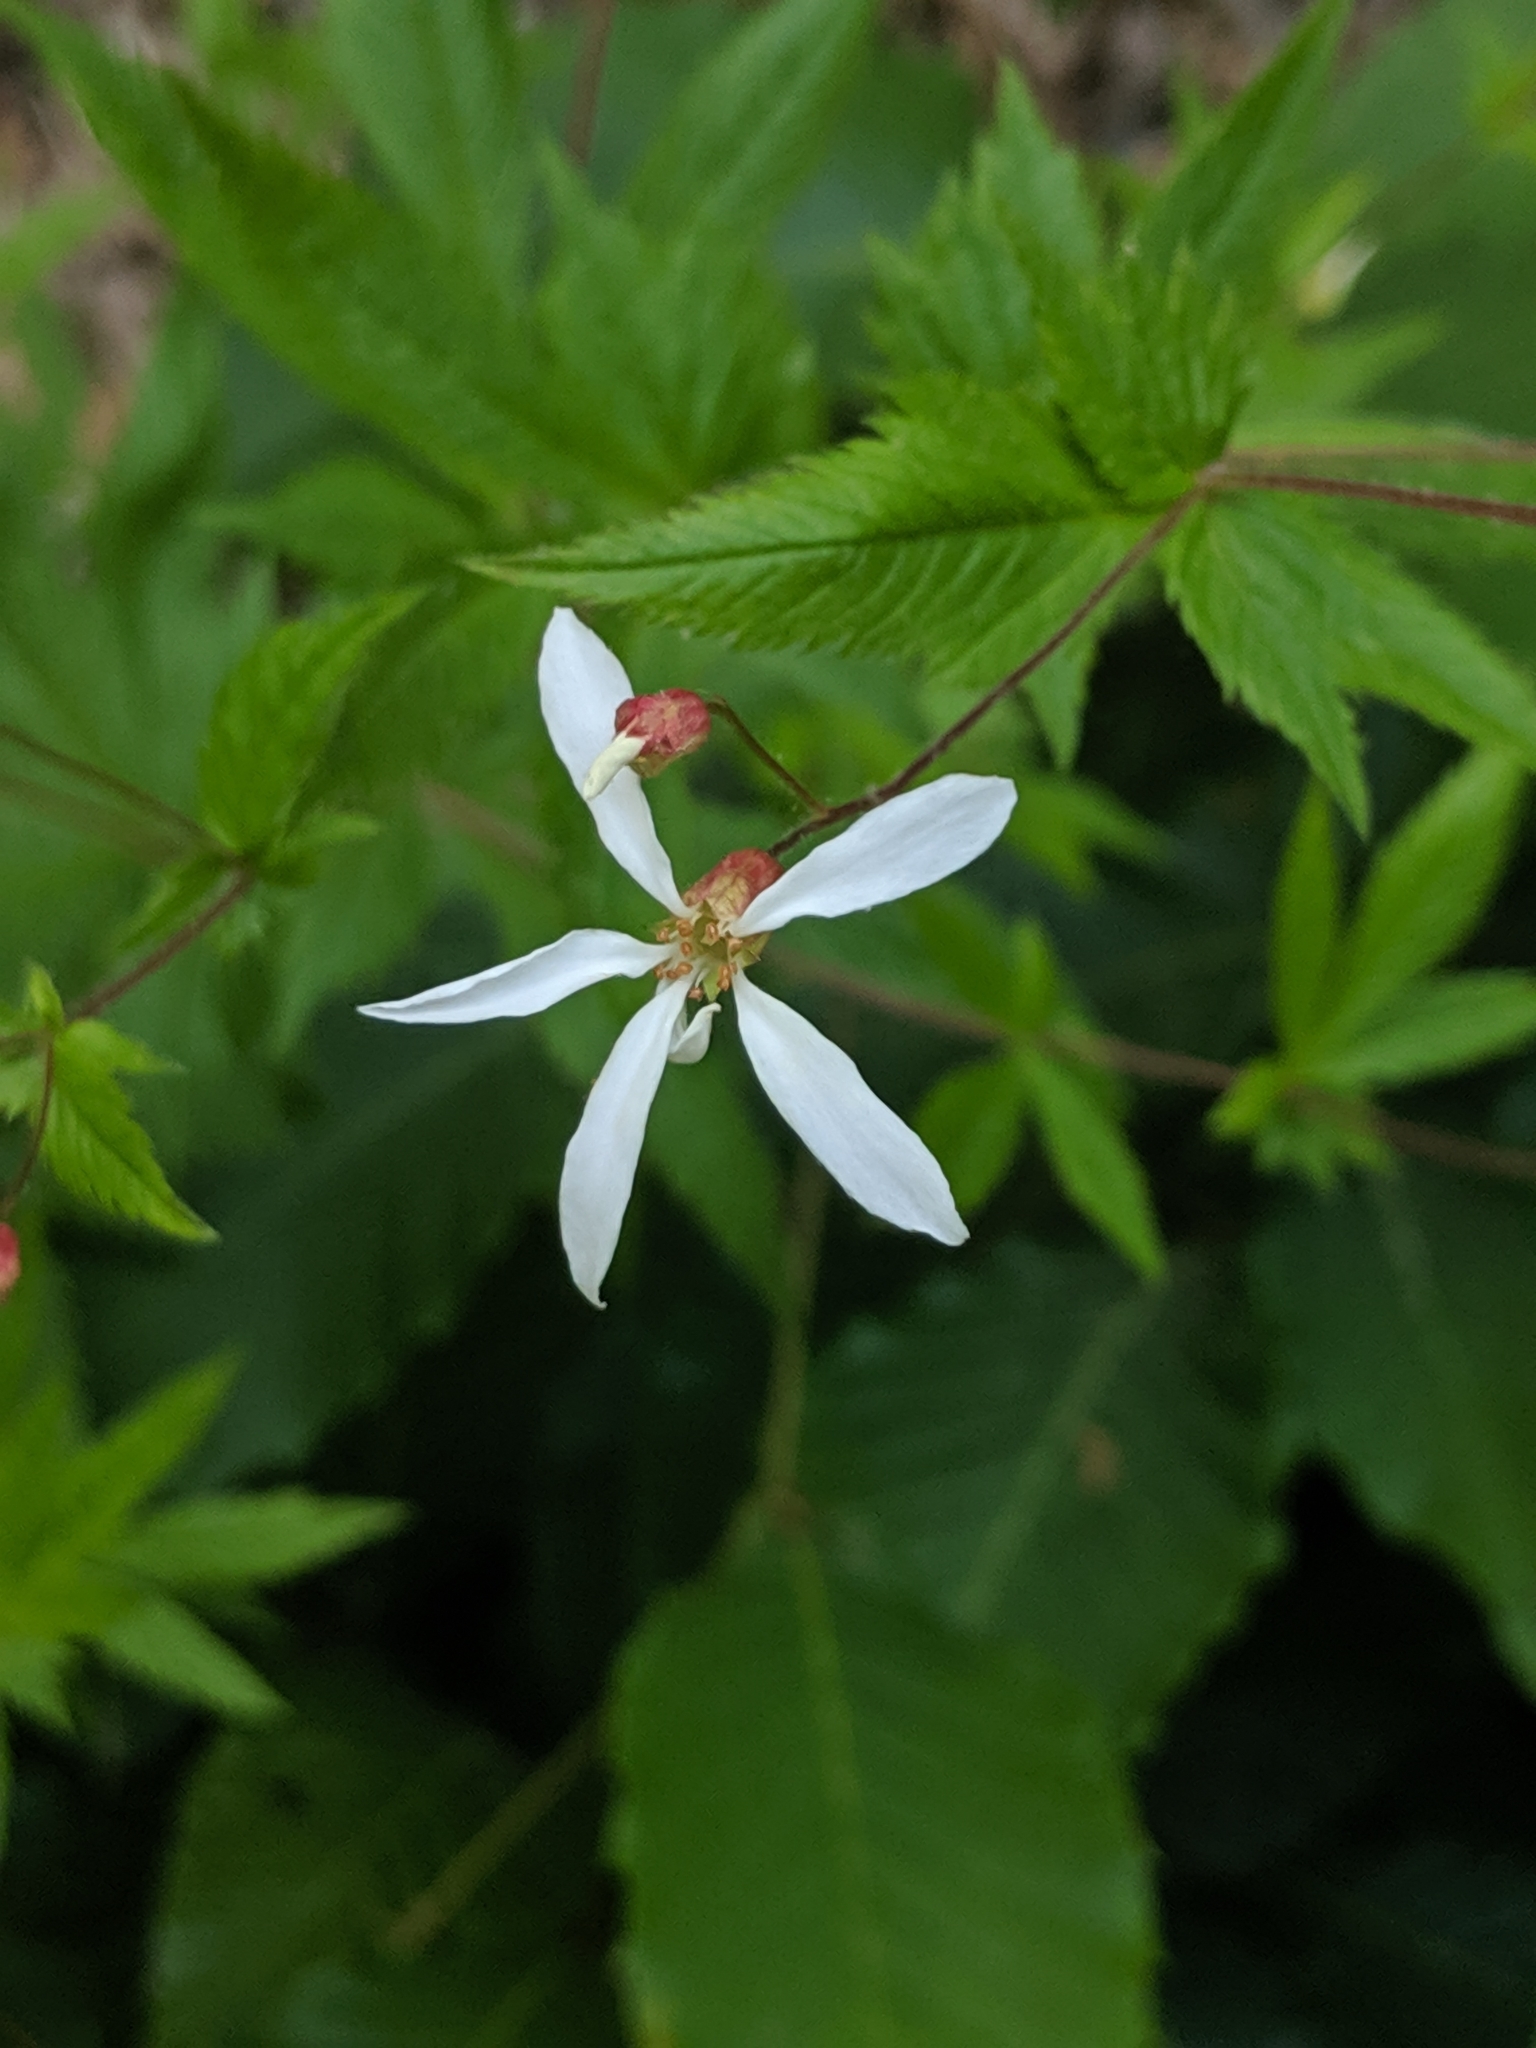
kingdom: Plantae
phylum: Tracheophyta
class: Magnoliopsida
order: Rosales
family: Rosaceae
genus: Gillenia
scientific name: Gillenia stipulata
